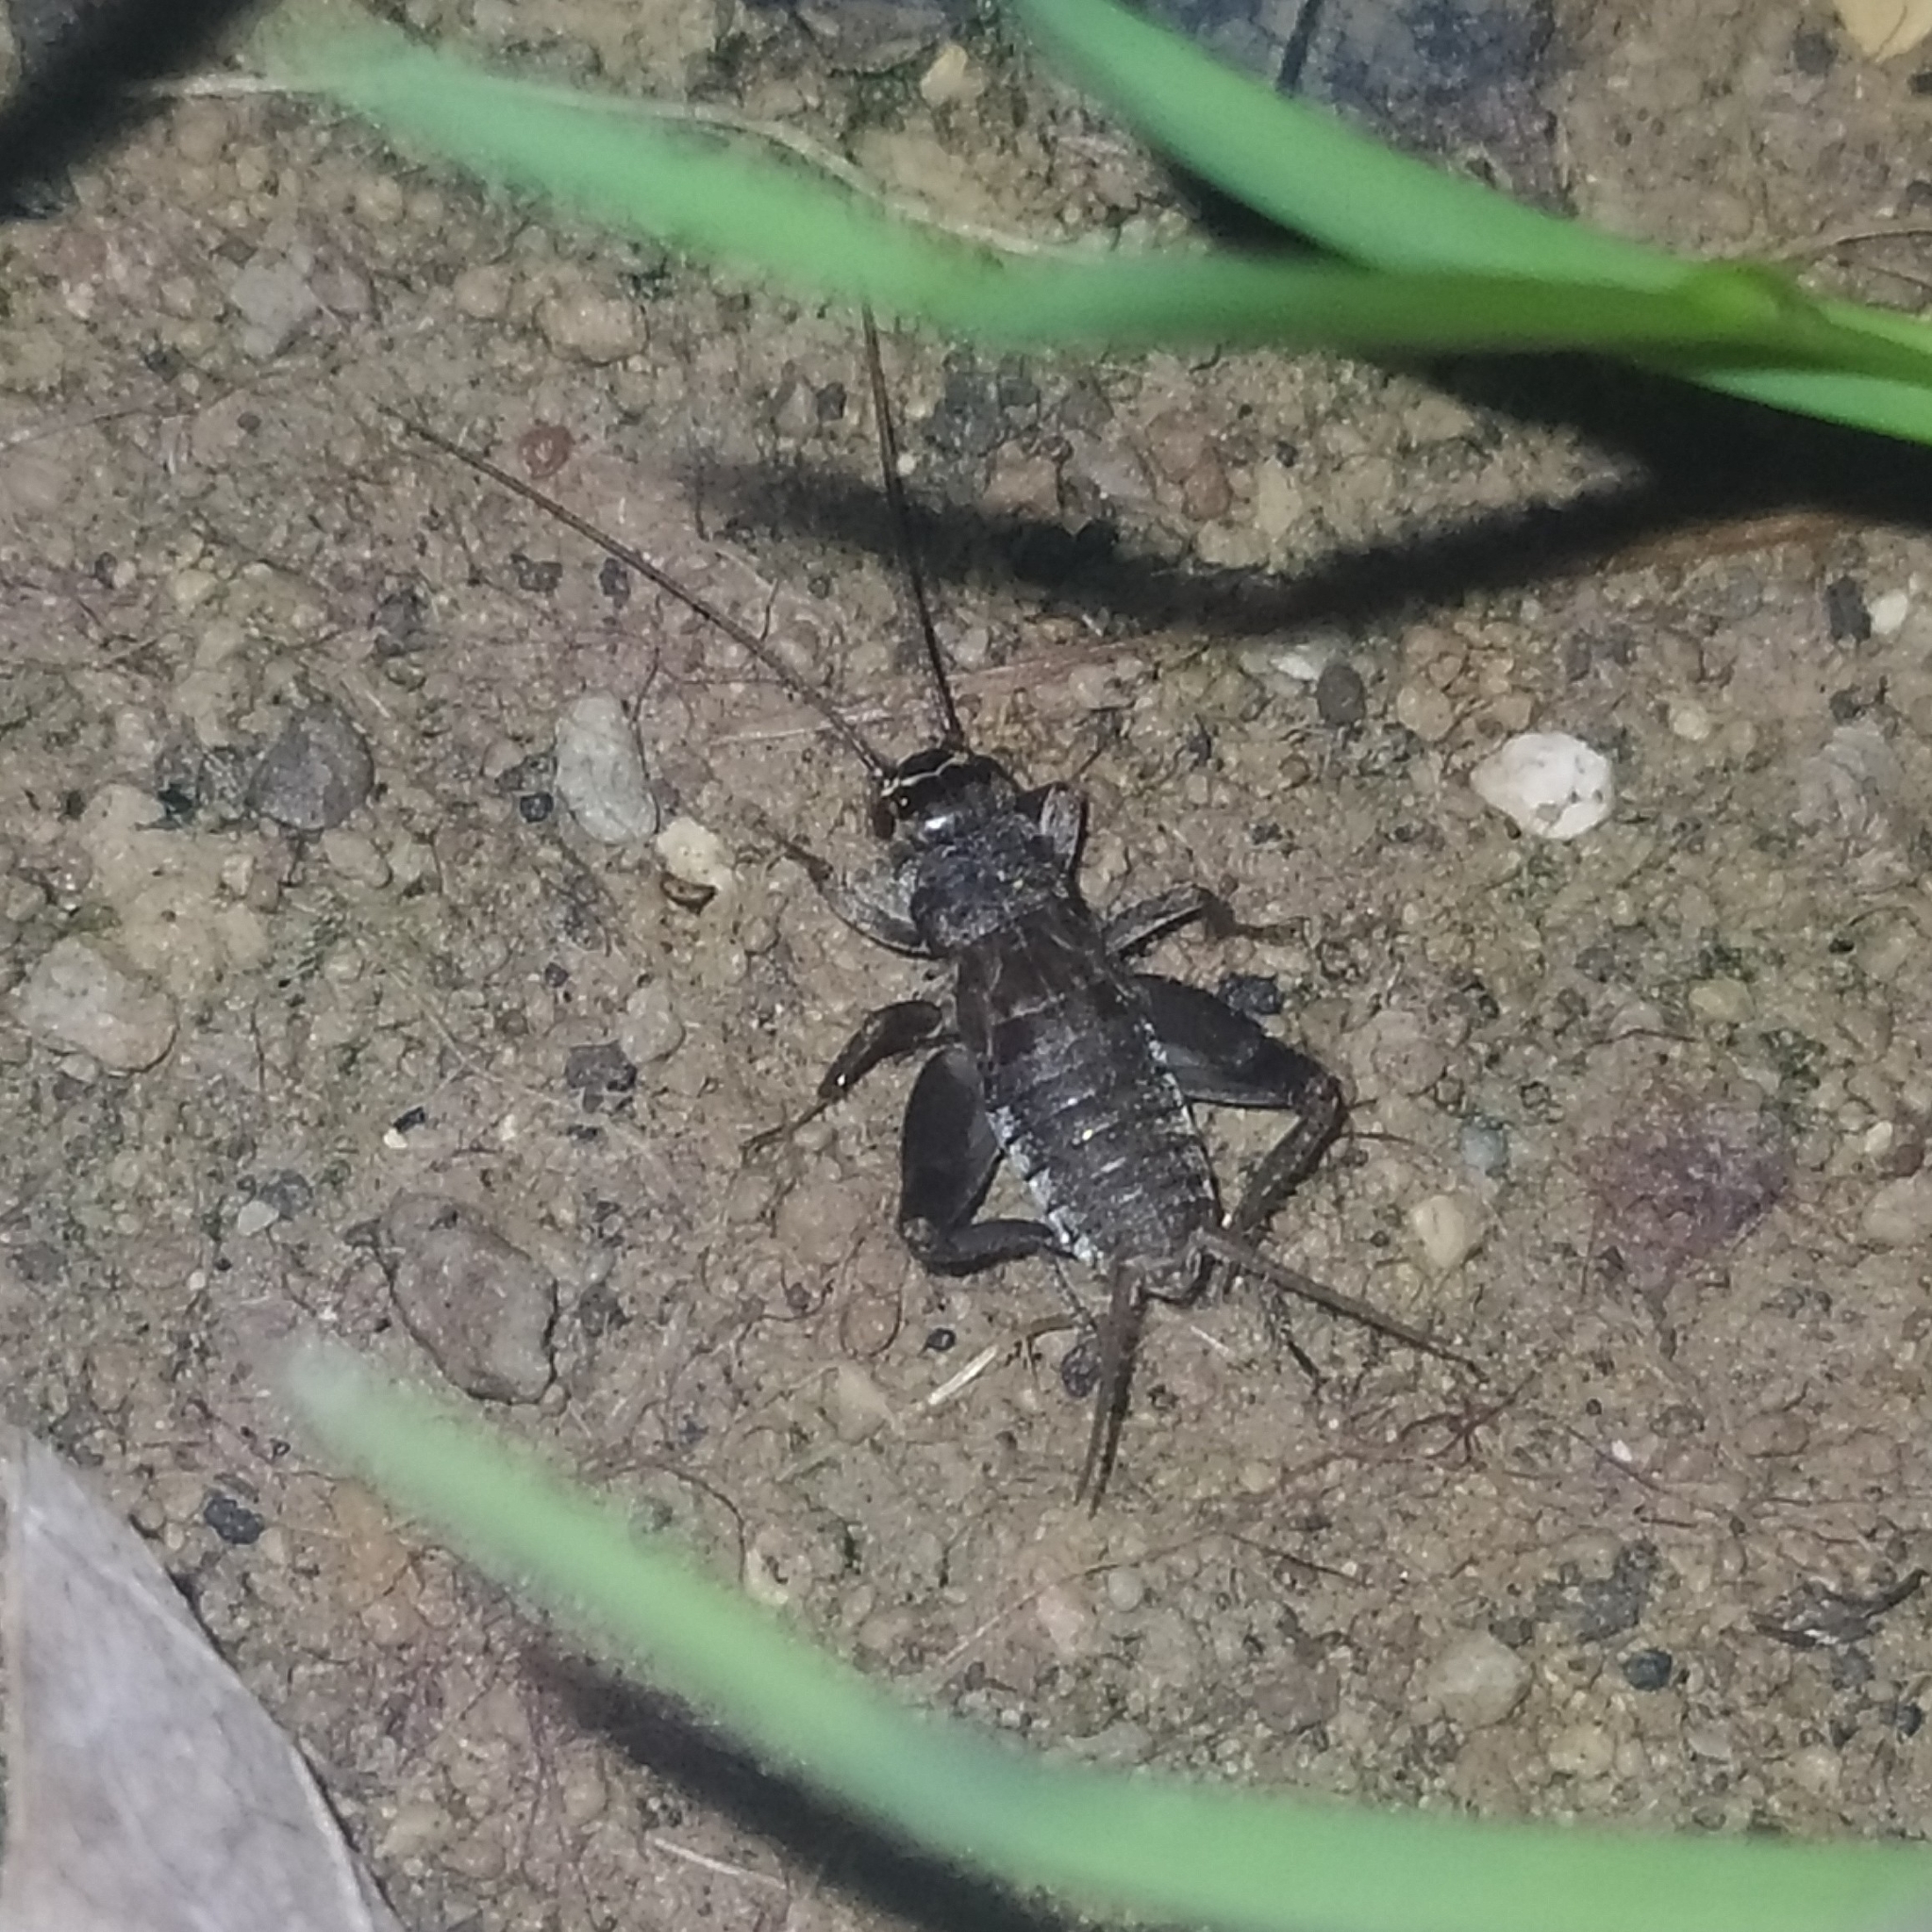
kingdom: Animalia
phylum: Arthropoda
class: Insecta
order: Orthoptera
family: Gryllidae
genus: Eumodicogryllus
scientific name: Eumodicogryllus bordigalensis
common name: Bordeaux cricket
